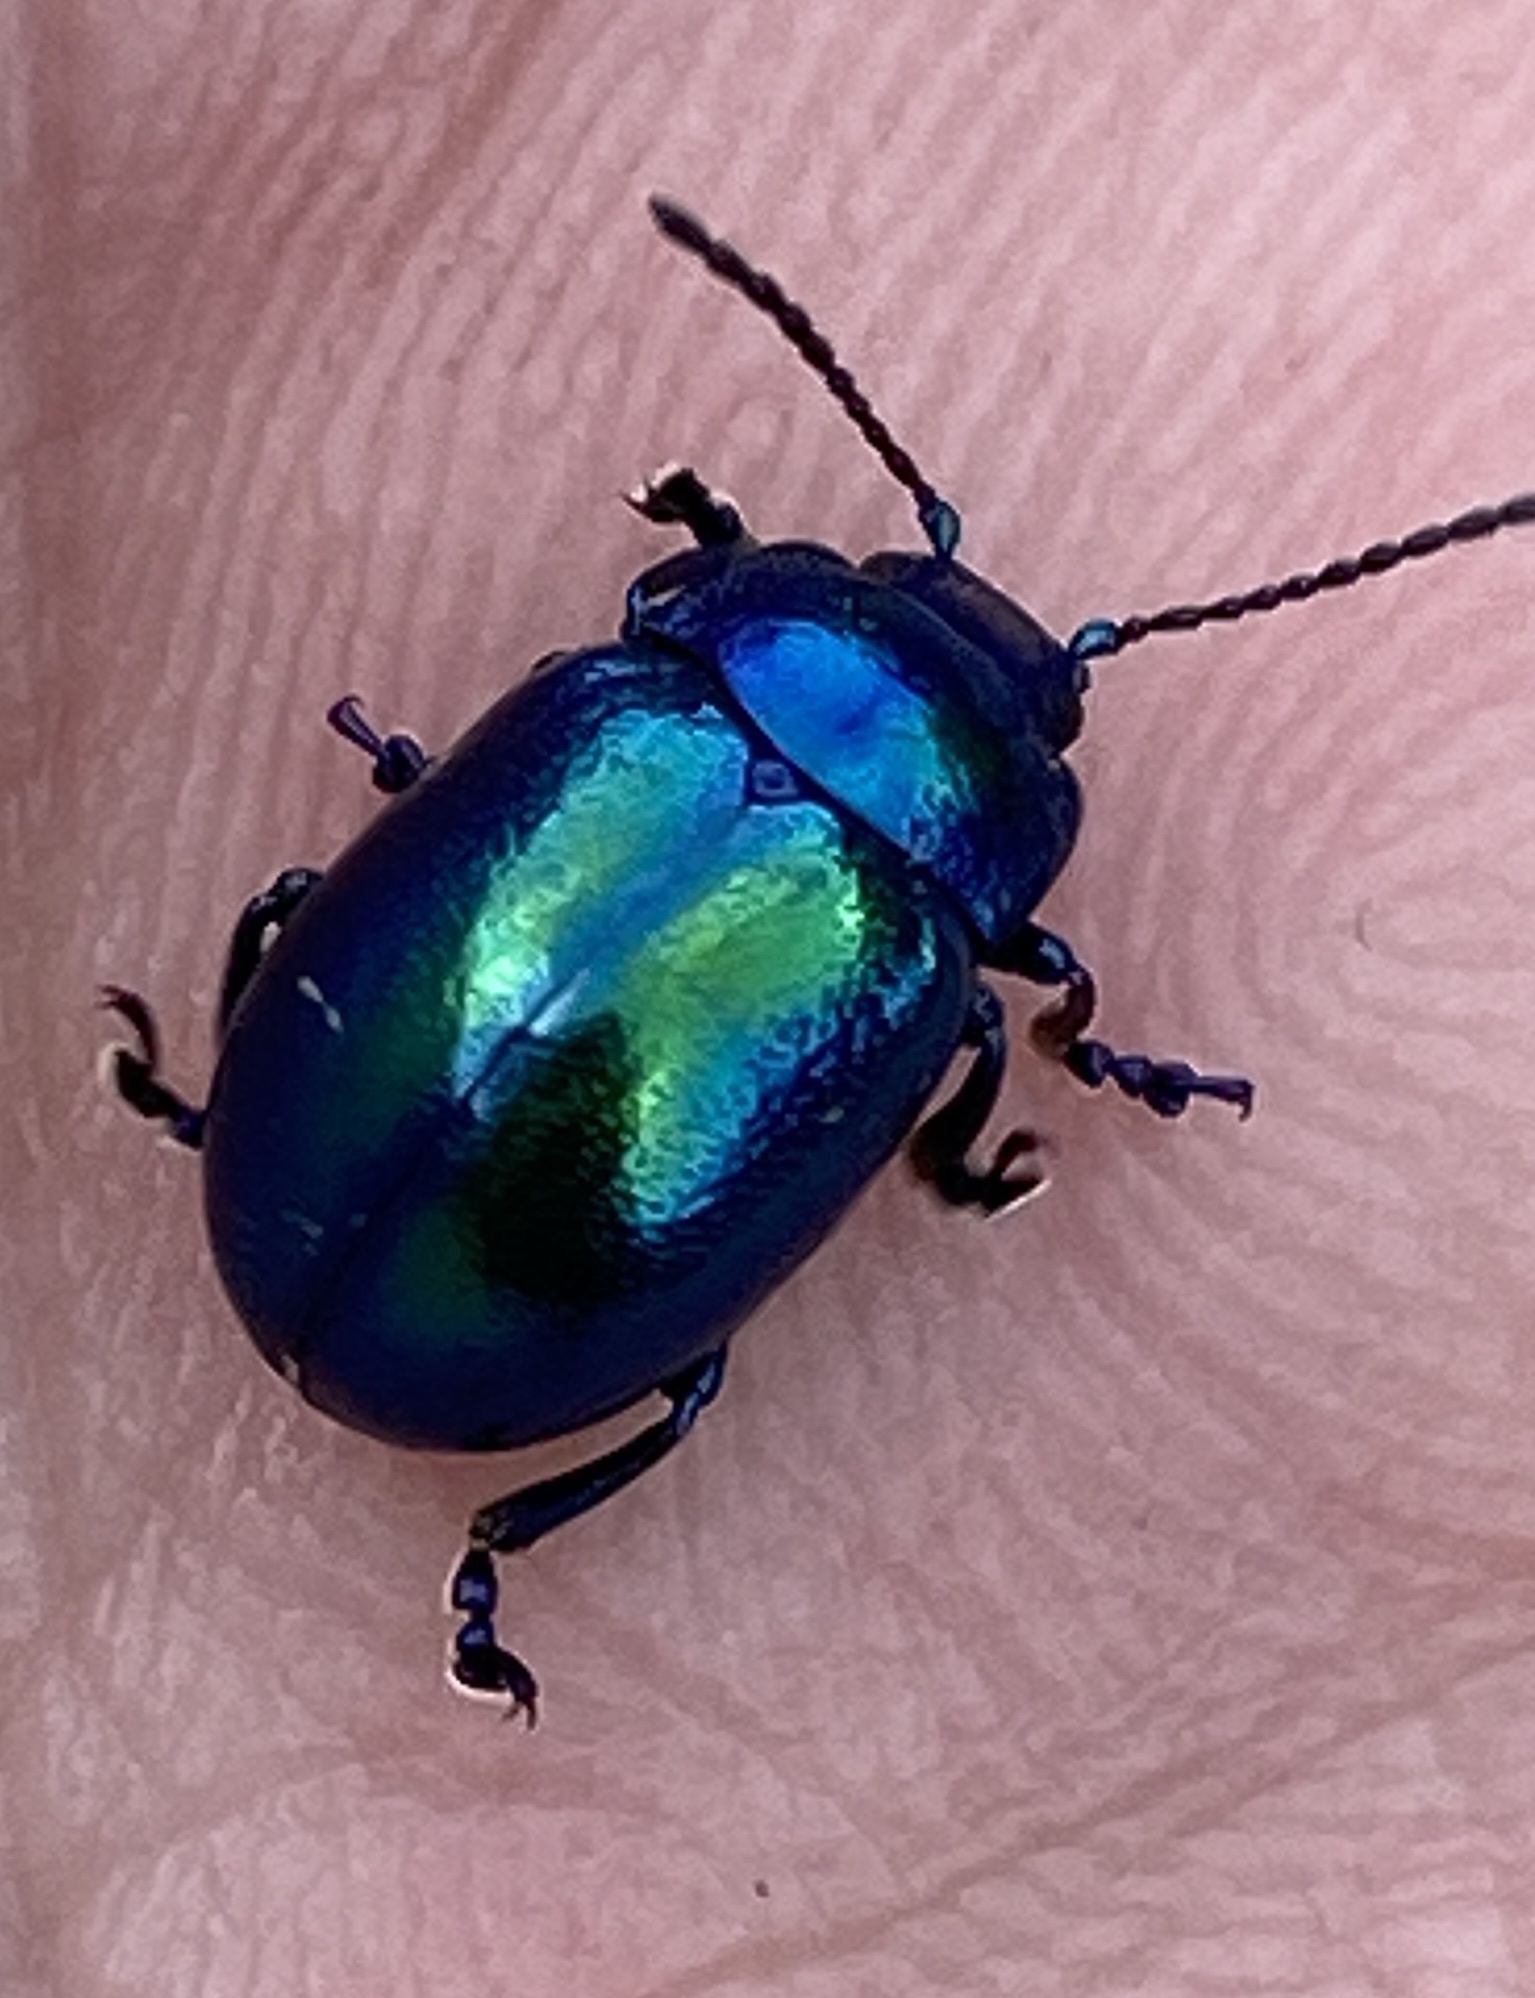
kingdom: Animalia
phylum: Arthropoda
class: Insecta
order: Coleoptera
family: Chrysomelidae
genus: Chrysolina
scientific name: Chrysolina coerulans
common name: Blue mint beetle
